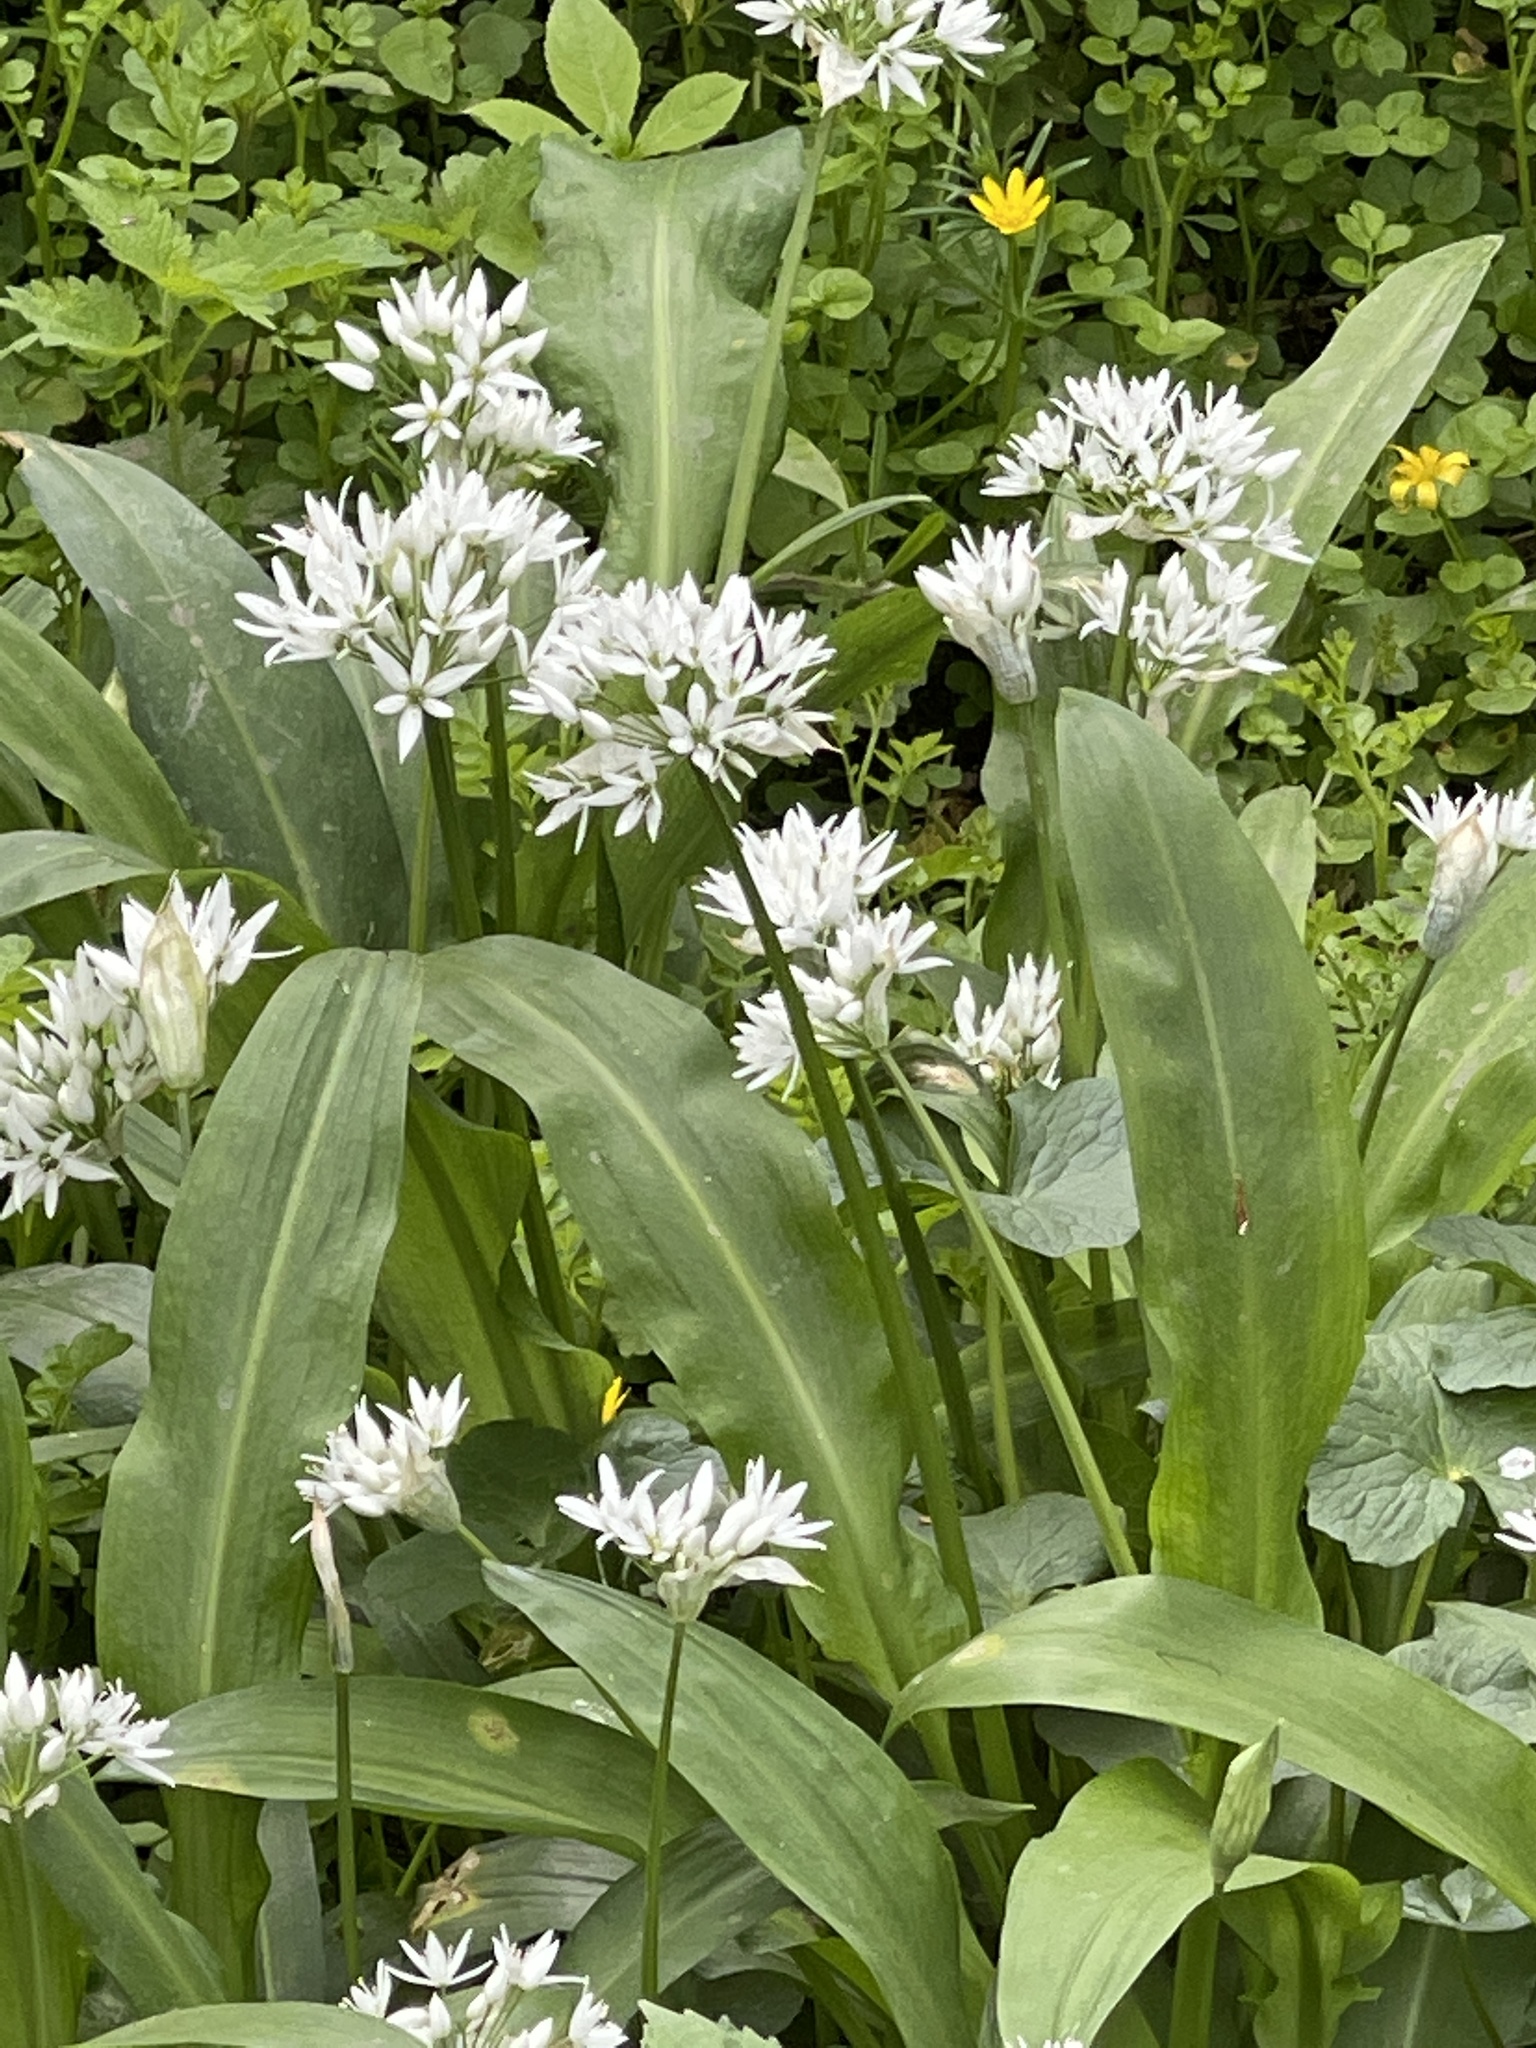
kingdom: Plantae
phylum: Tracheophyta
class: Liliopsida
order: Asparagales
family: Amaryllidaceae
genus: Allium
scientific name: Allium ursinum
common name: Ramsons
